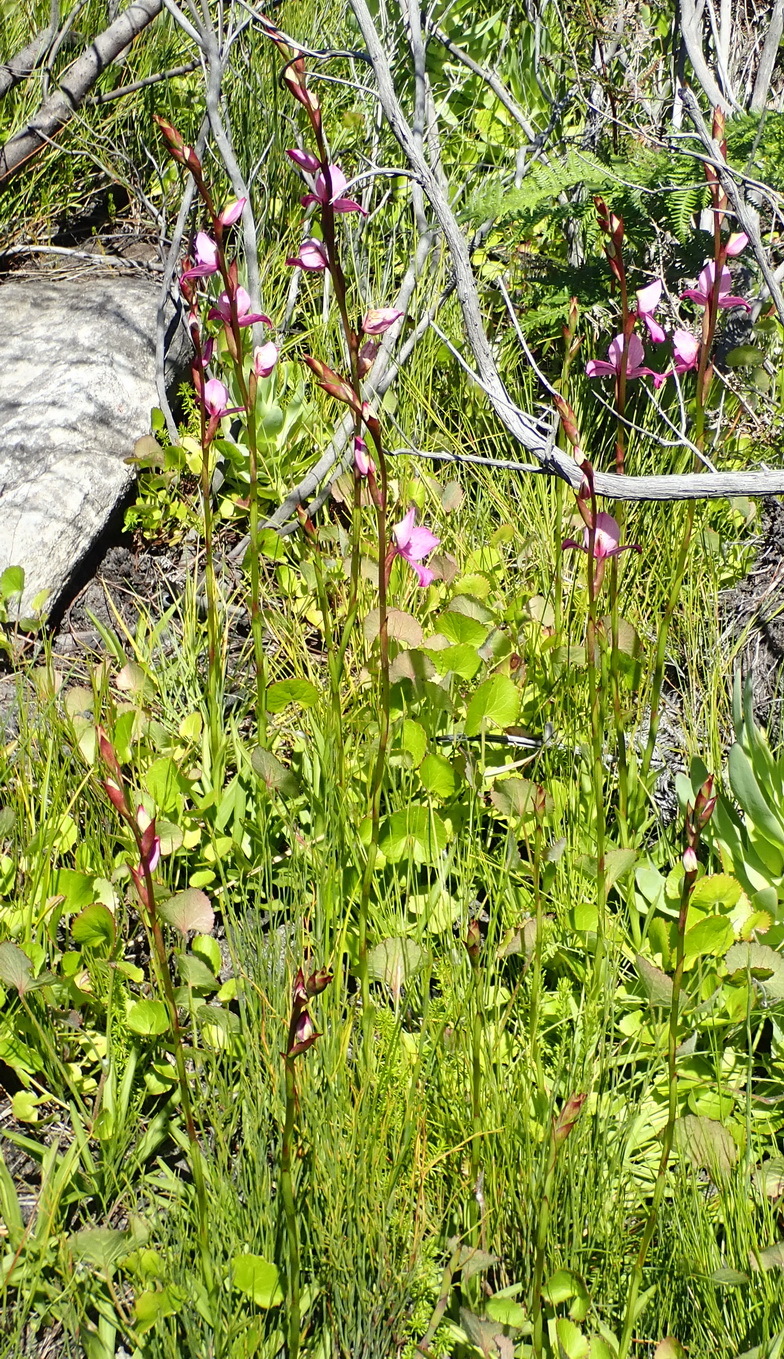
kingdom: Plantae
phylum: Tracheophyta
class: Liliopsida
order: Asparagales
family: Orchidaceae
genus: Disa
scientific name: Disa racemosa
